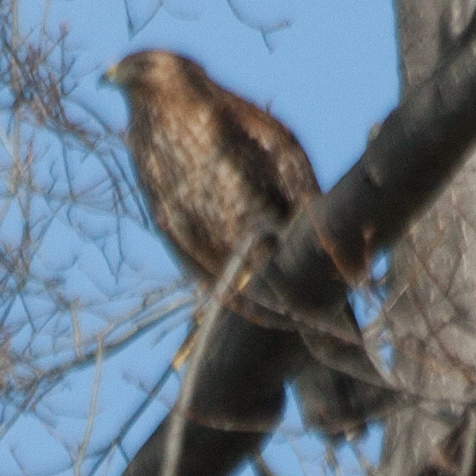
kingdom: Animalia
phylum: Chordata
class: Aves
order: Accipitriformes
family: Accipitridae
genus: Buteo
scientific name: Buteo lineatus
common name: Red-shouldered hawk
